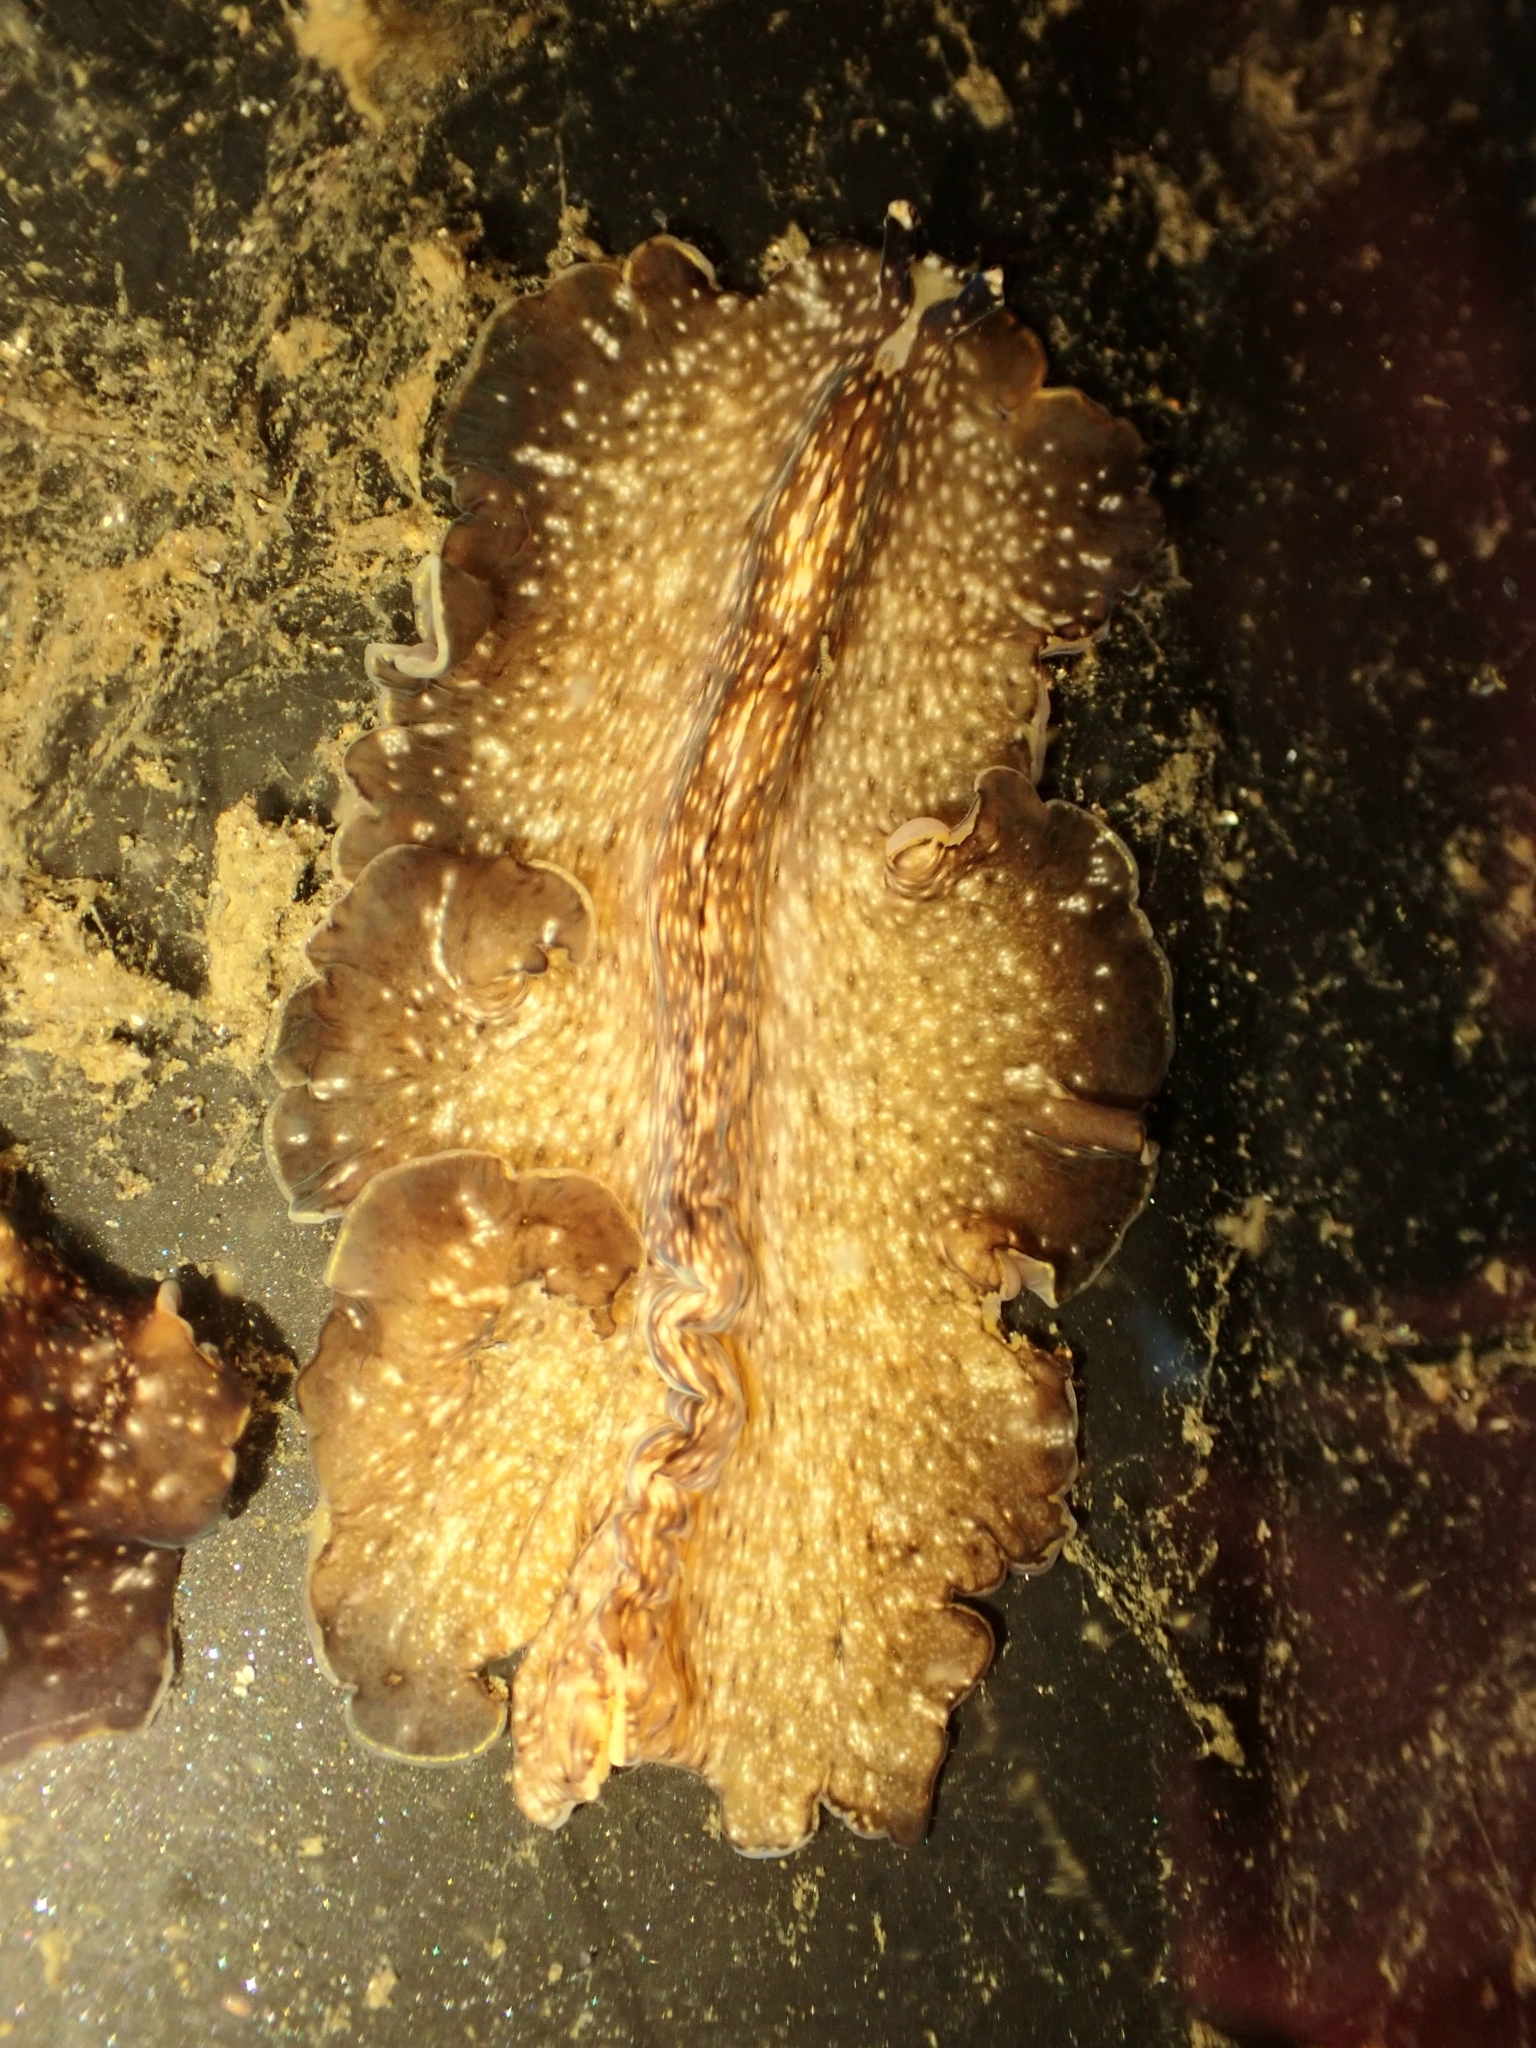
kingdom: Animalia
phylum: Platyhelminthes
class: Turbellaria
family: Pseudocerotidae
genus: Pseudoceros
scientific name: Pseudoceros mexicanus
